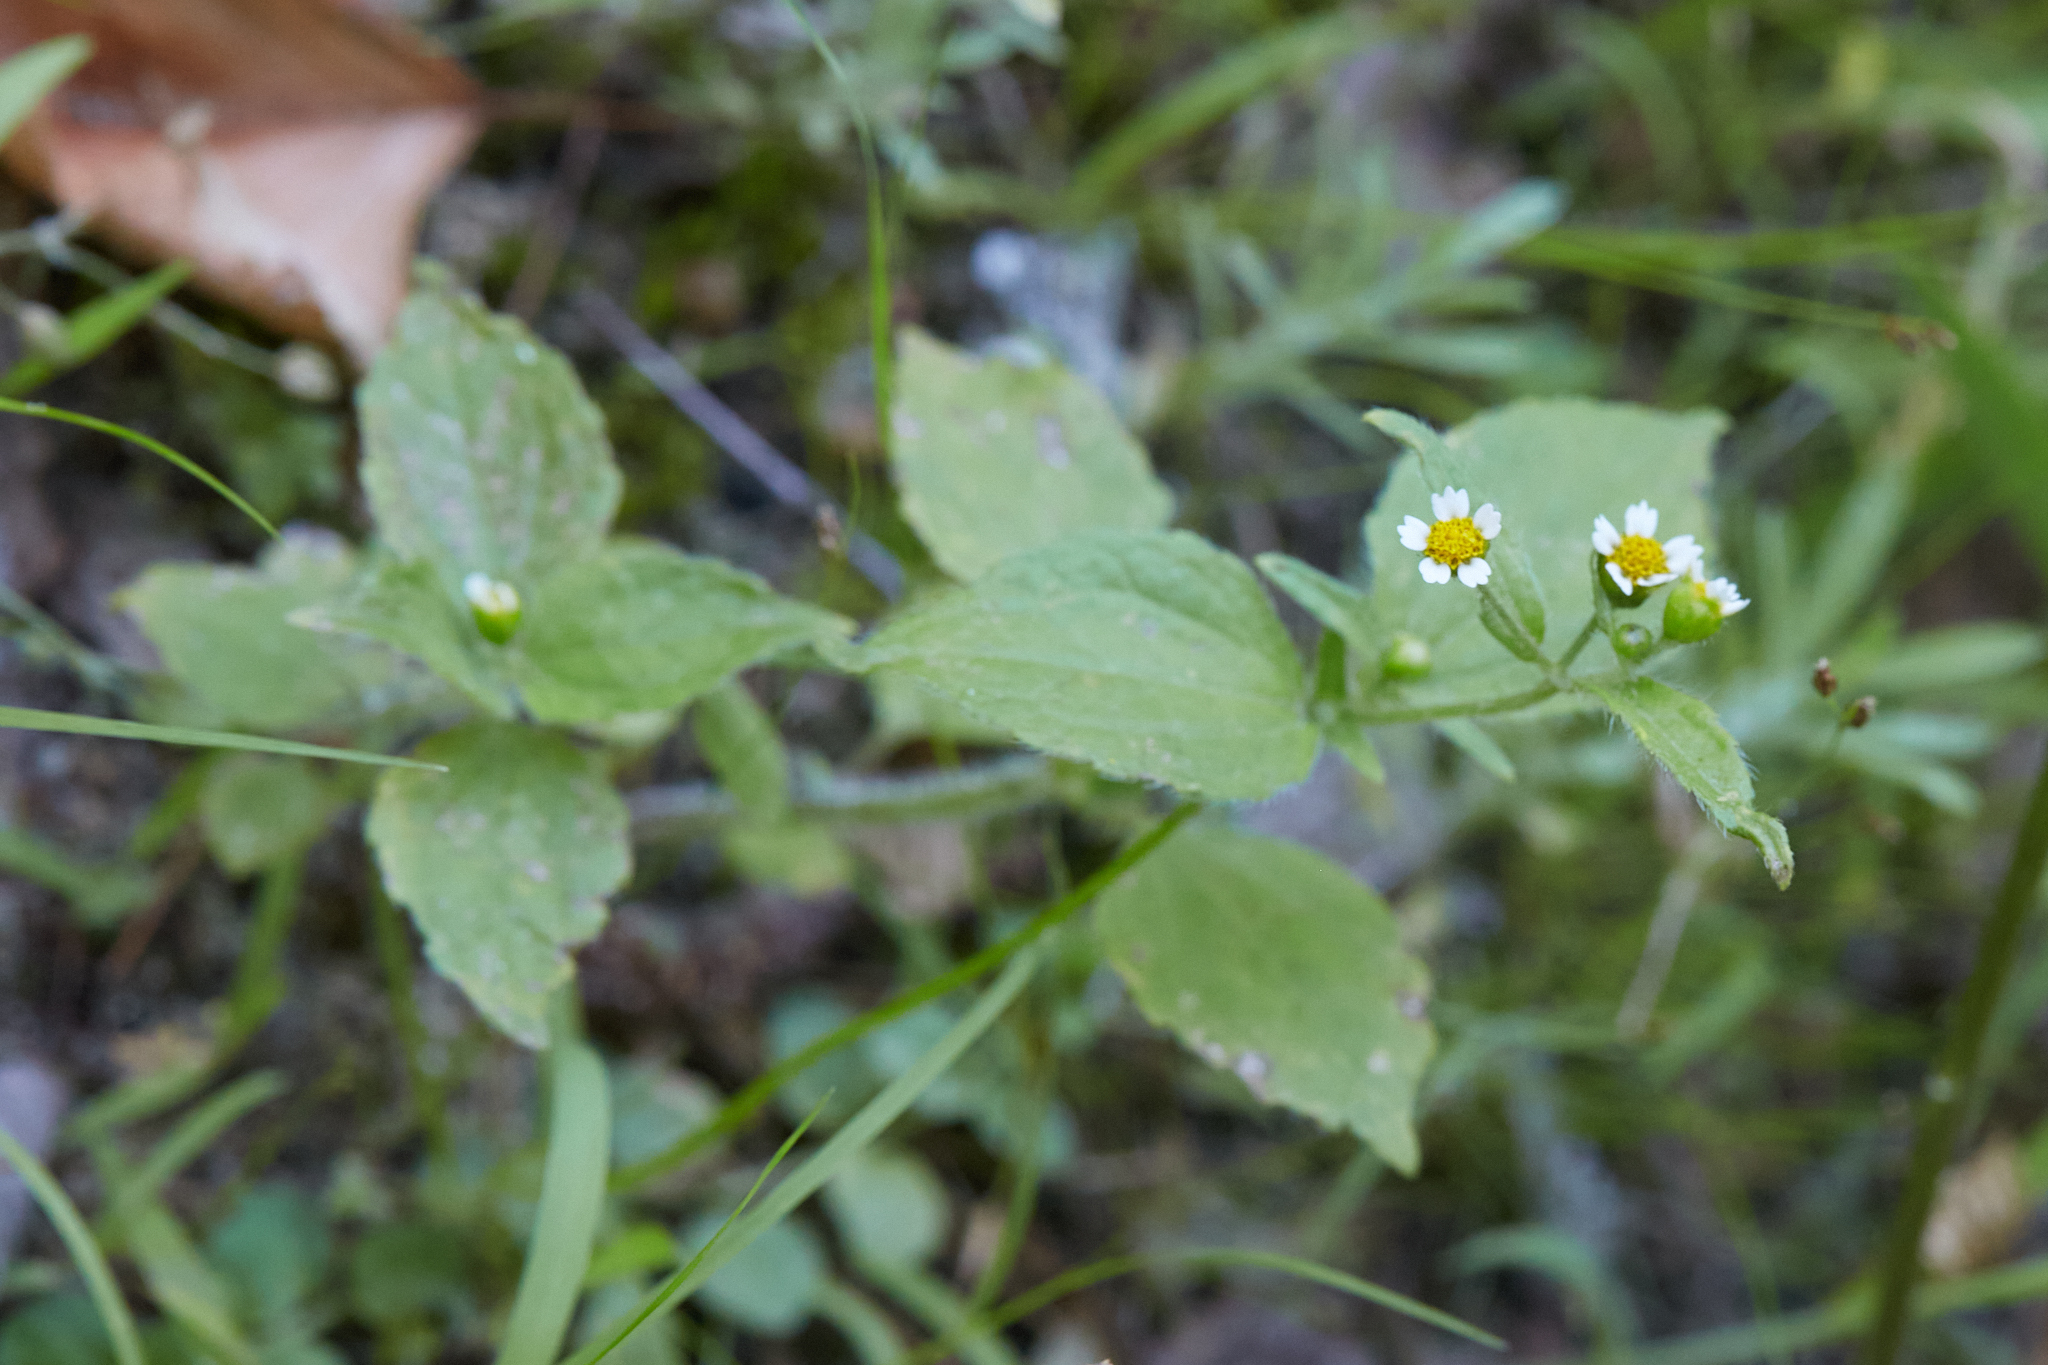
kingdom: Plantae
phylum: Tracheophyta
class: Magnoliopsida
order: Asterales
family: Asteraceae
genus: Galinsoga
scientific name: Galinsoga quadriradiata
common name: Shaggy soldier
